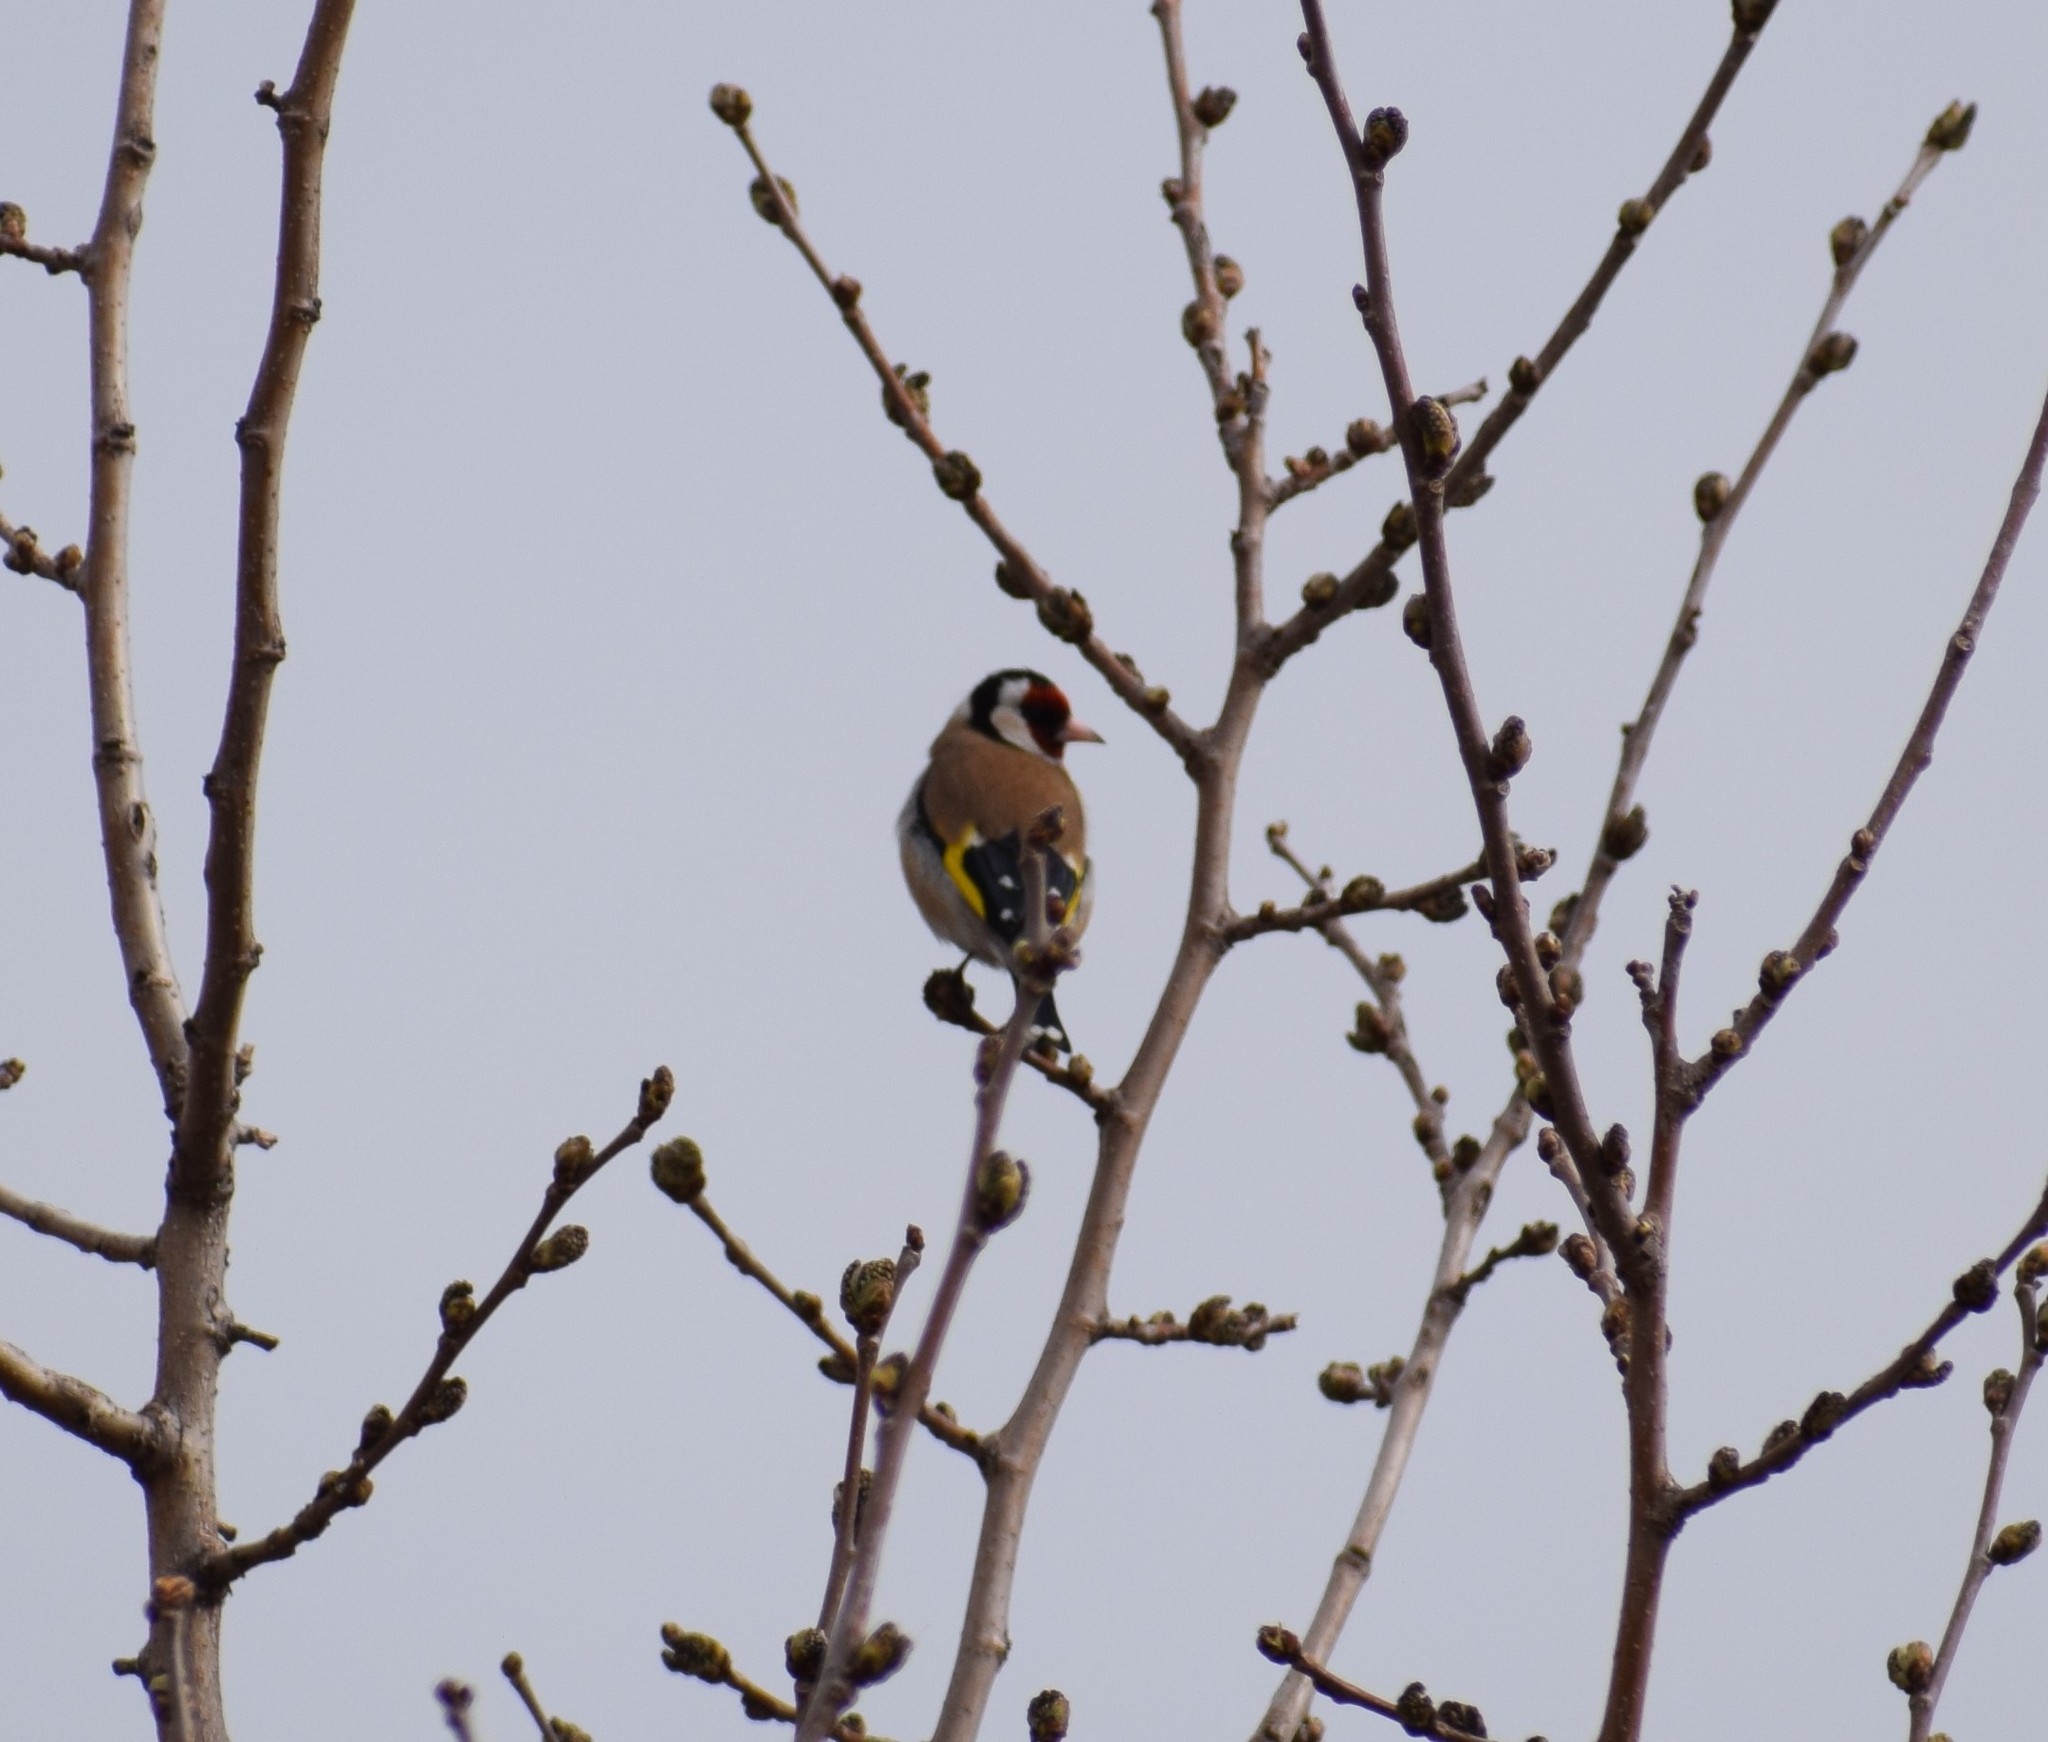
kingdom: Animalia
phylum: Chordata
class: Aves
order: Passeriformes
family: Fringillidae
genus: Carduelis
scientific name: Carduelis carduelis
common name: European goldfinch
